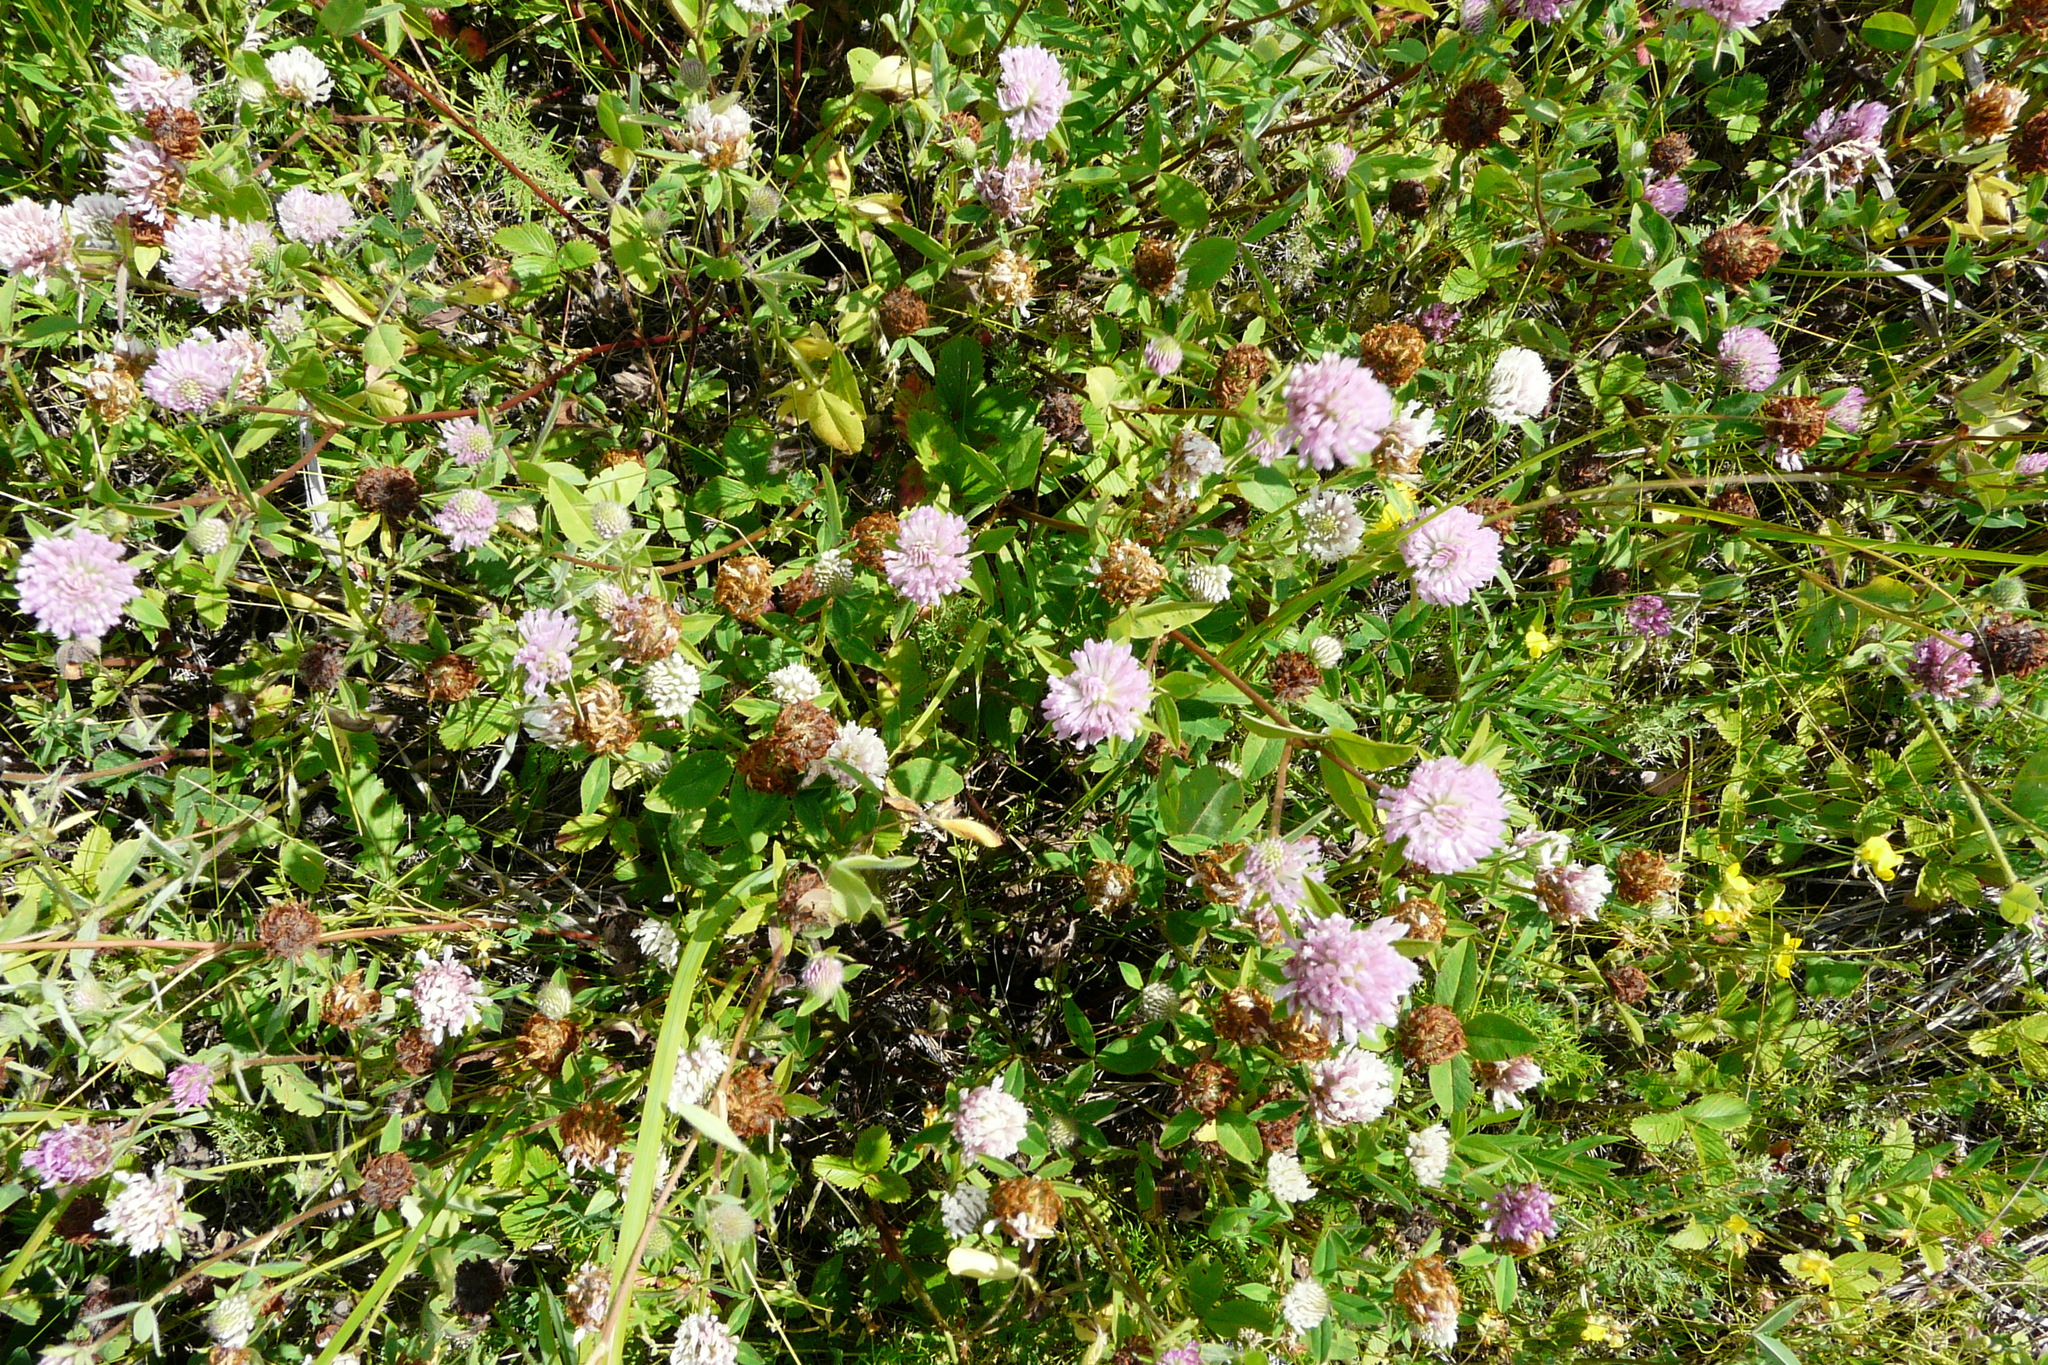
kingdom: Plantae
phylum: Tracheophyta
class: Magnoliopsida
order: Fabales
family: Fabaceae
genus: Trifolium
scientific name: Trifolium pratense
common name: Red clover
